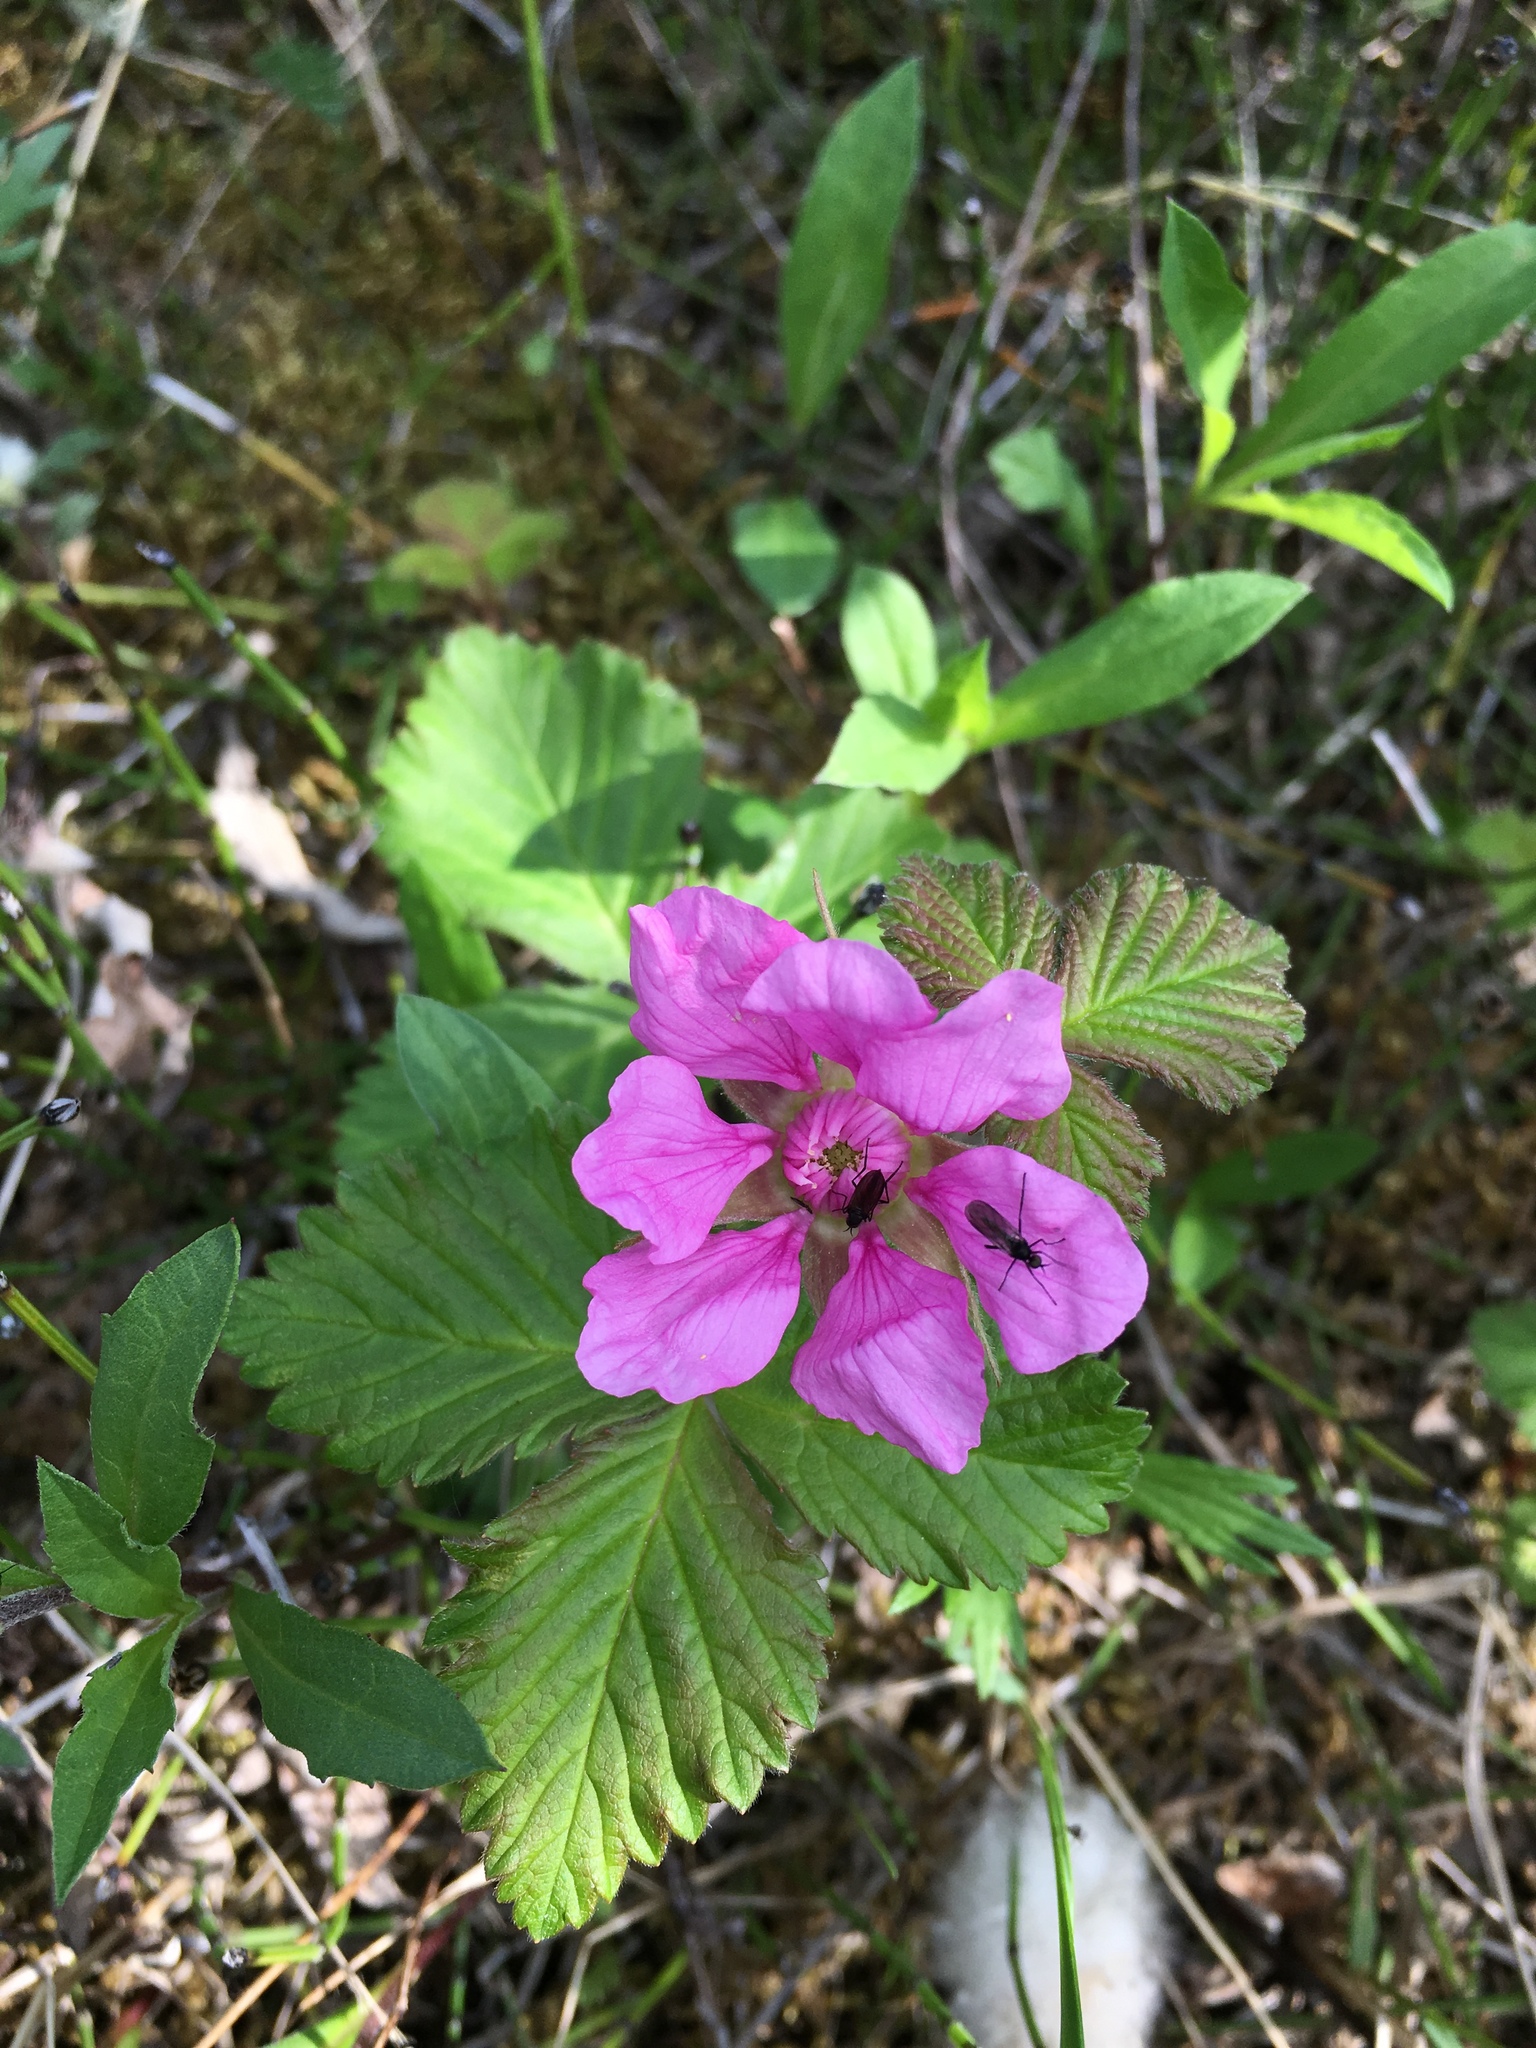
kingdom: Plantae
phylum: Tracheophyta
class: Magnoliopsida
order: Rosales
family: Rosaceae
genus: Rubus
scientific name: Rubus arcticus
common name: Arctic bramble
